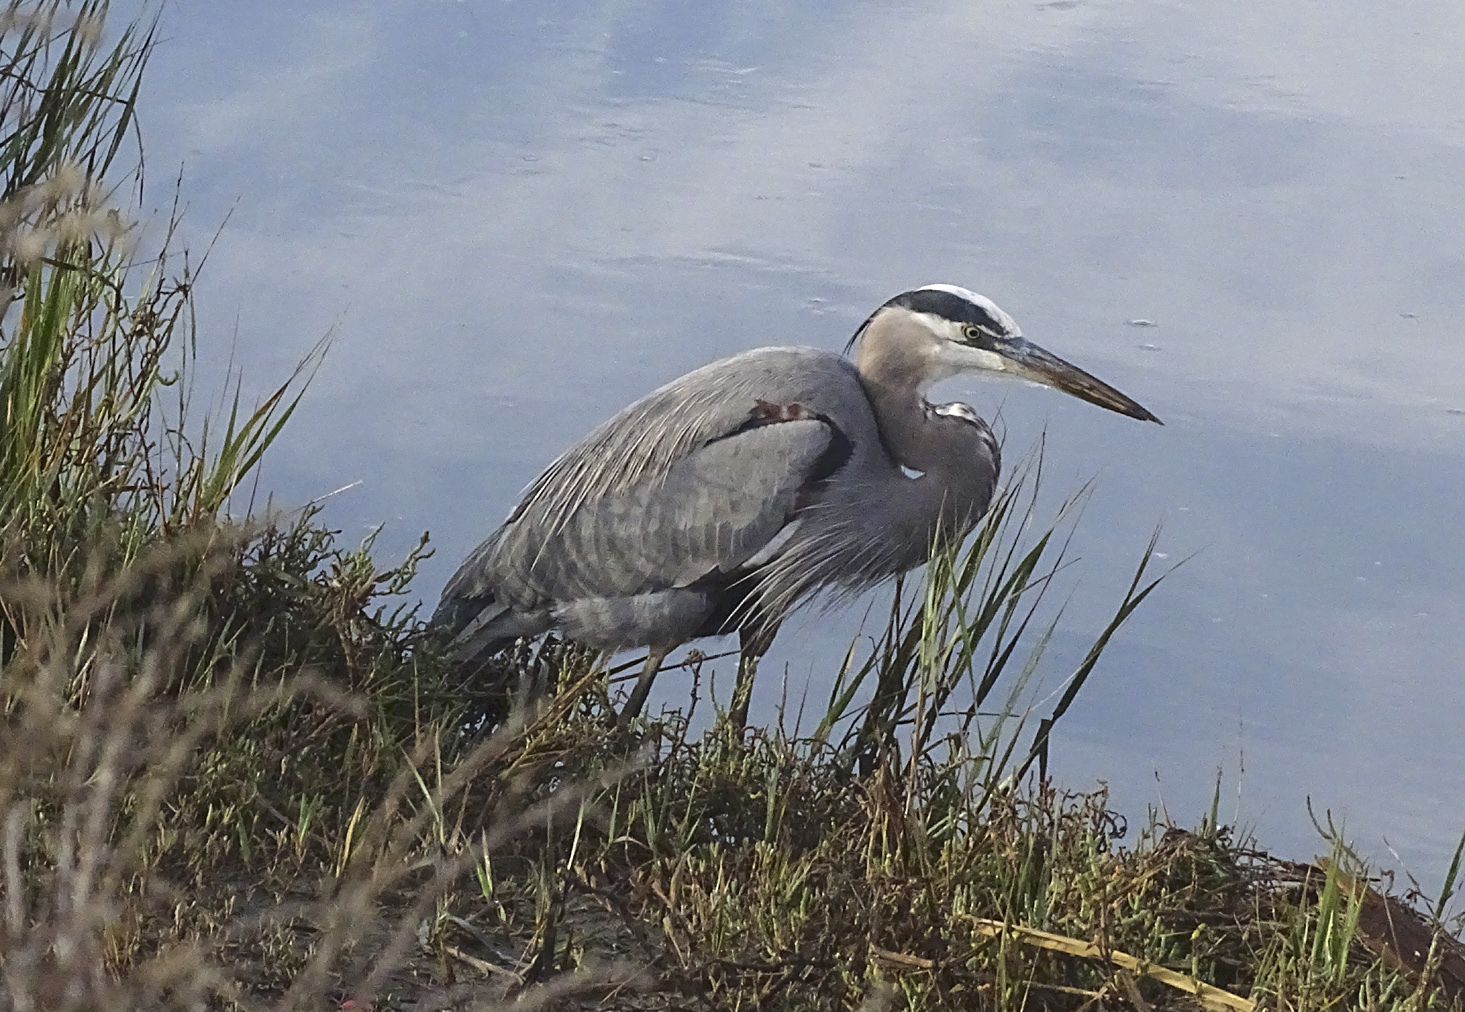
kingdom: Animalia
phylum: Chordata
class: Aves
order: Pelecaniformes
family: Ardeidae
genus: Ardea
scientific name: Ardea herodias
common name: Great blue heron
